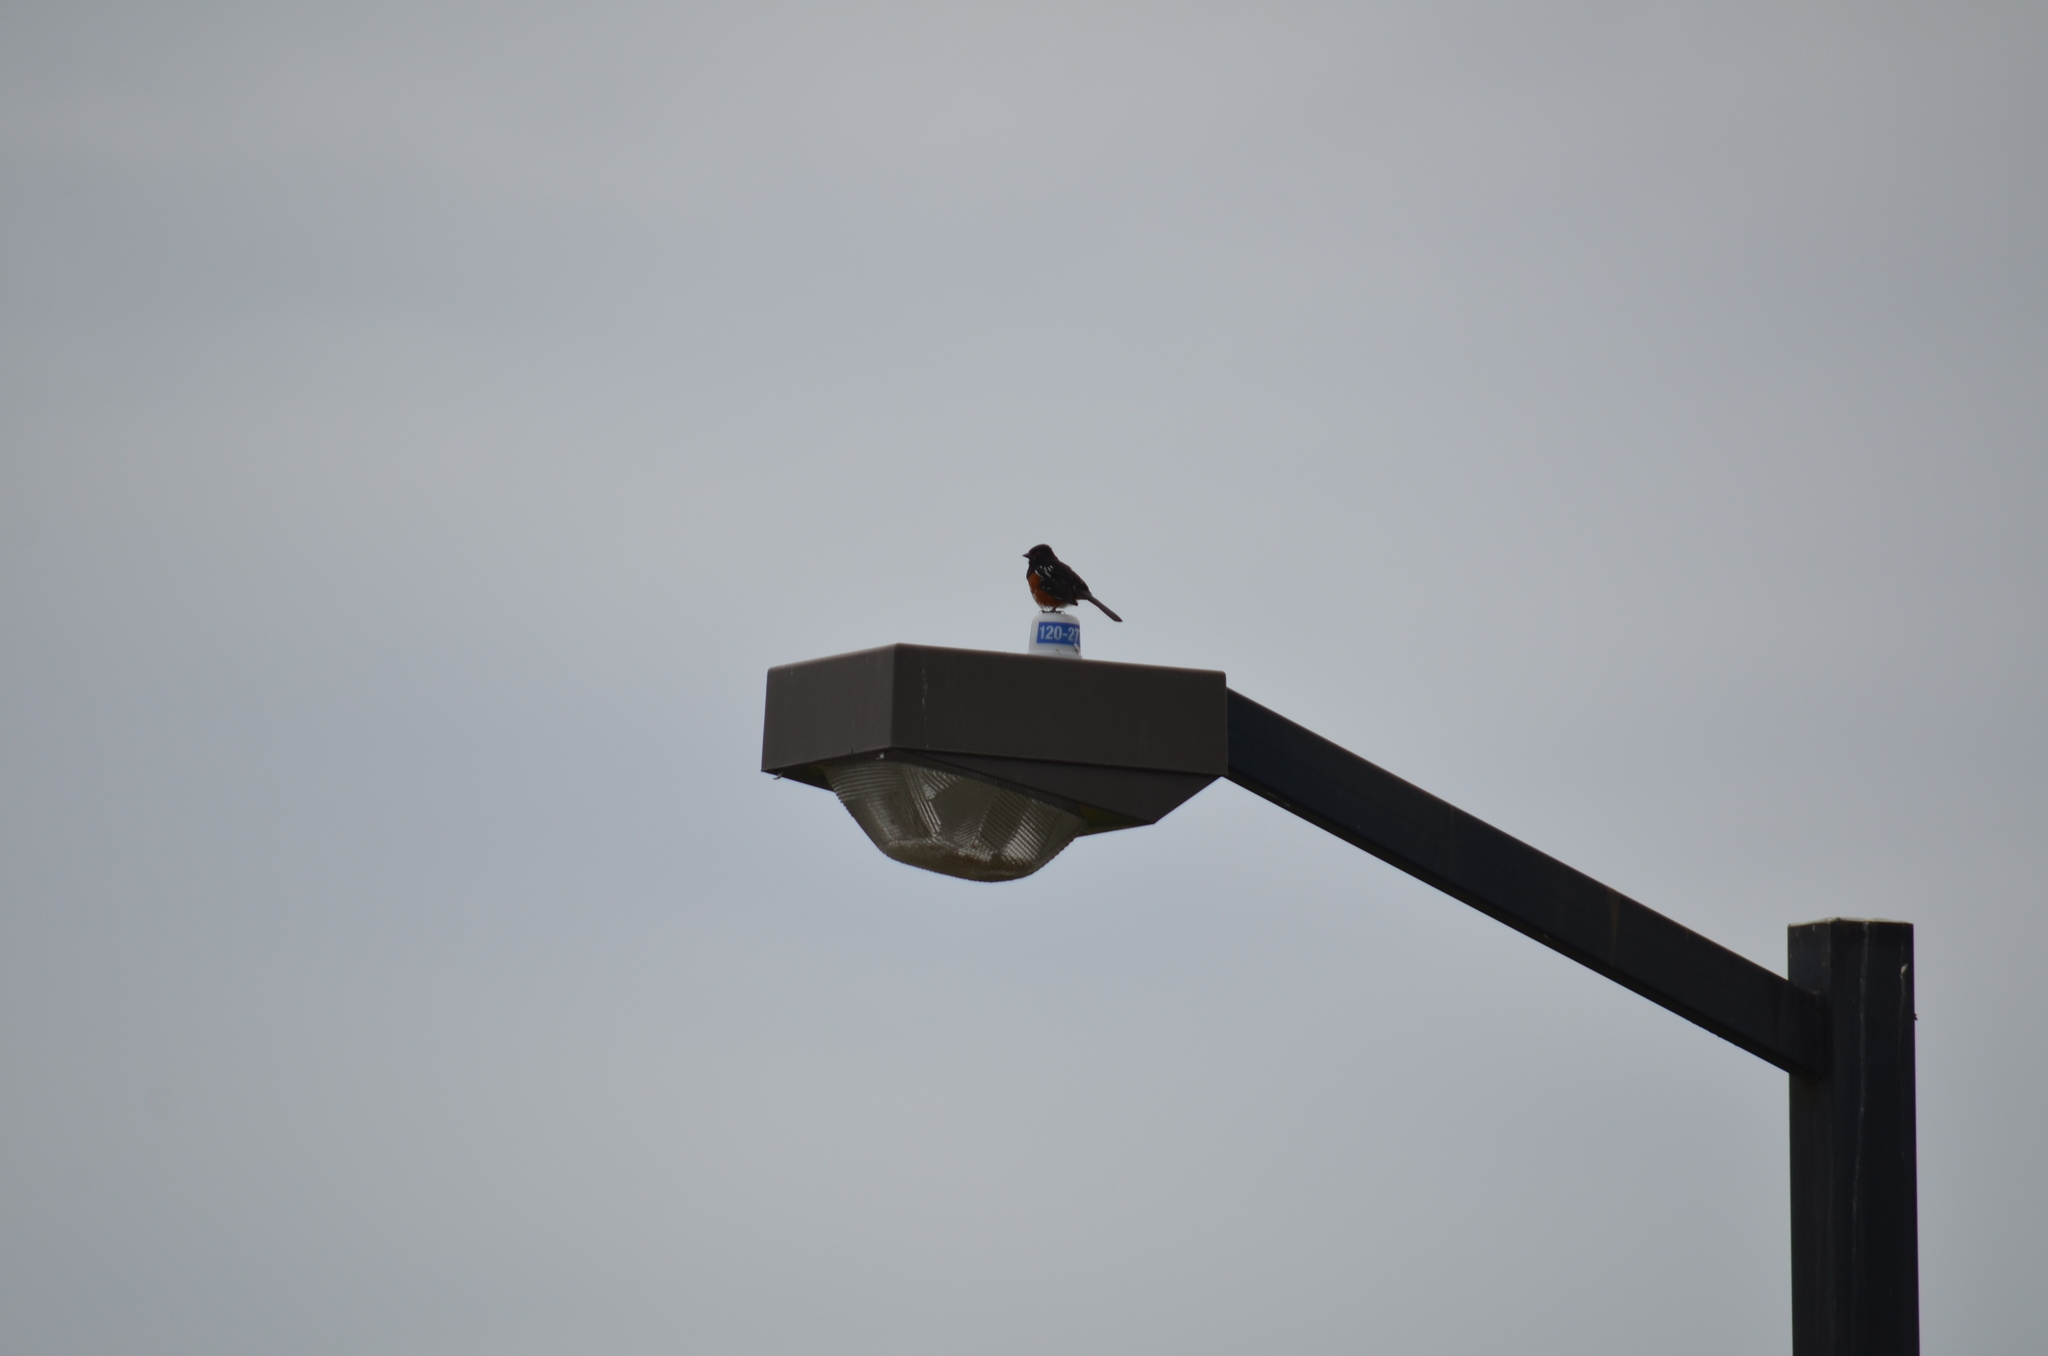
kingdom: Animalia
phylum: Chordata
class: Aves
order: Passeriformes
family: Passerellidae
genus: Pipilo
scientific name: Pipilo maculatus
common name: Spotted towhee
